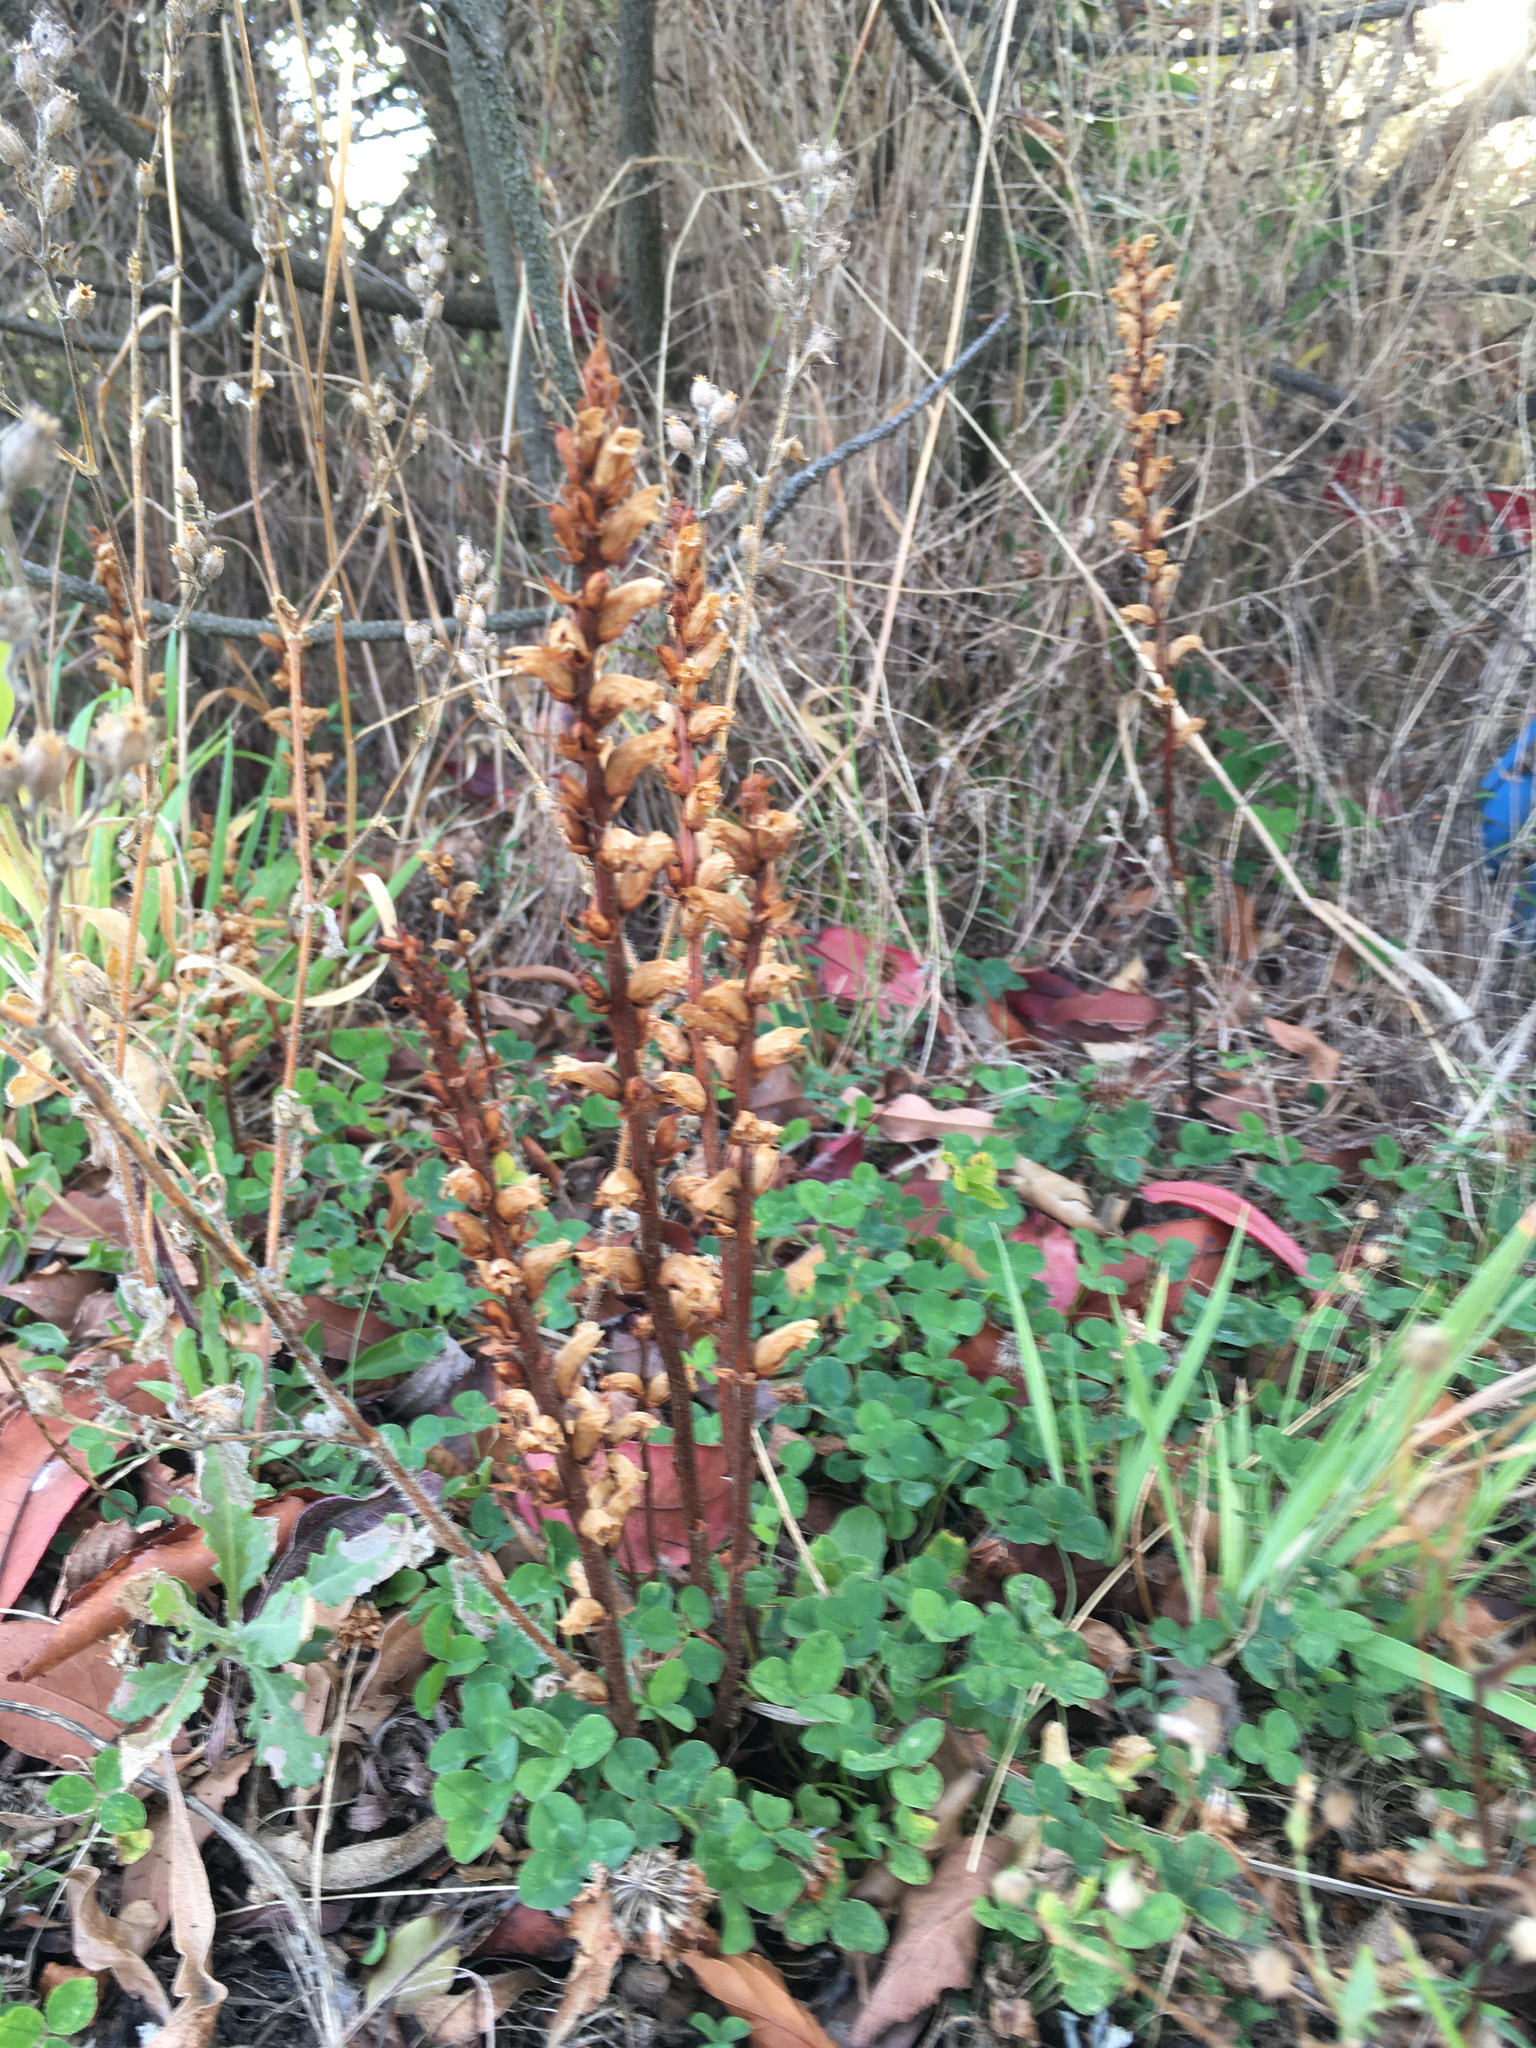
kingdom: Plantae
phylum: Tracheophyta
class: Magnoliopsida
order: Lamiales
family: Orobanchaceae
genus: Orobanche
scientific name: Orobanche minor
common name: Common broomrape
